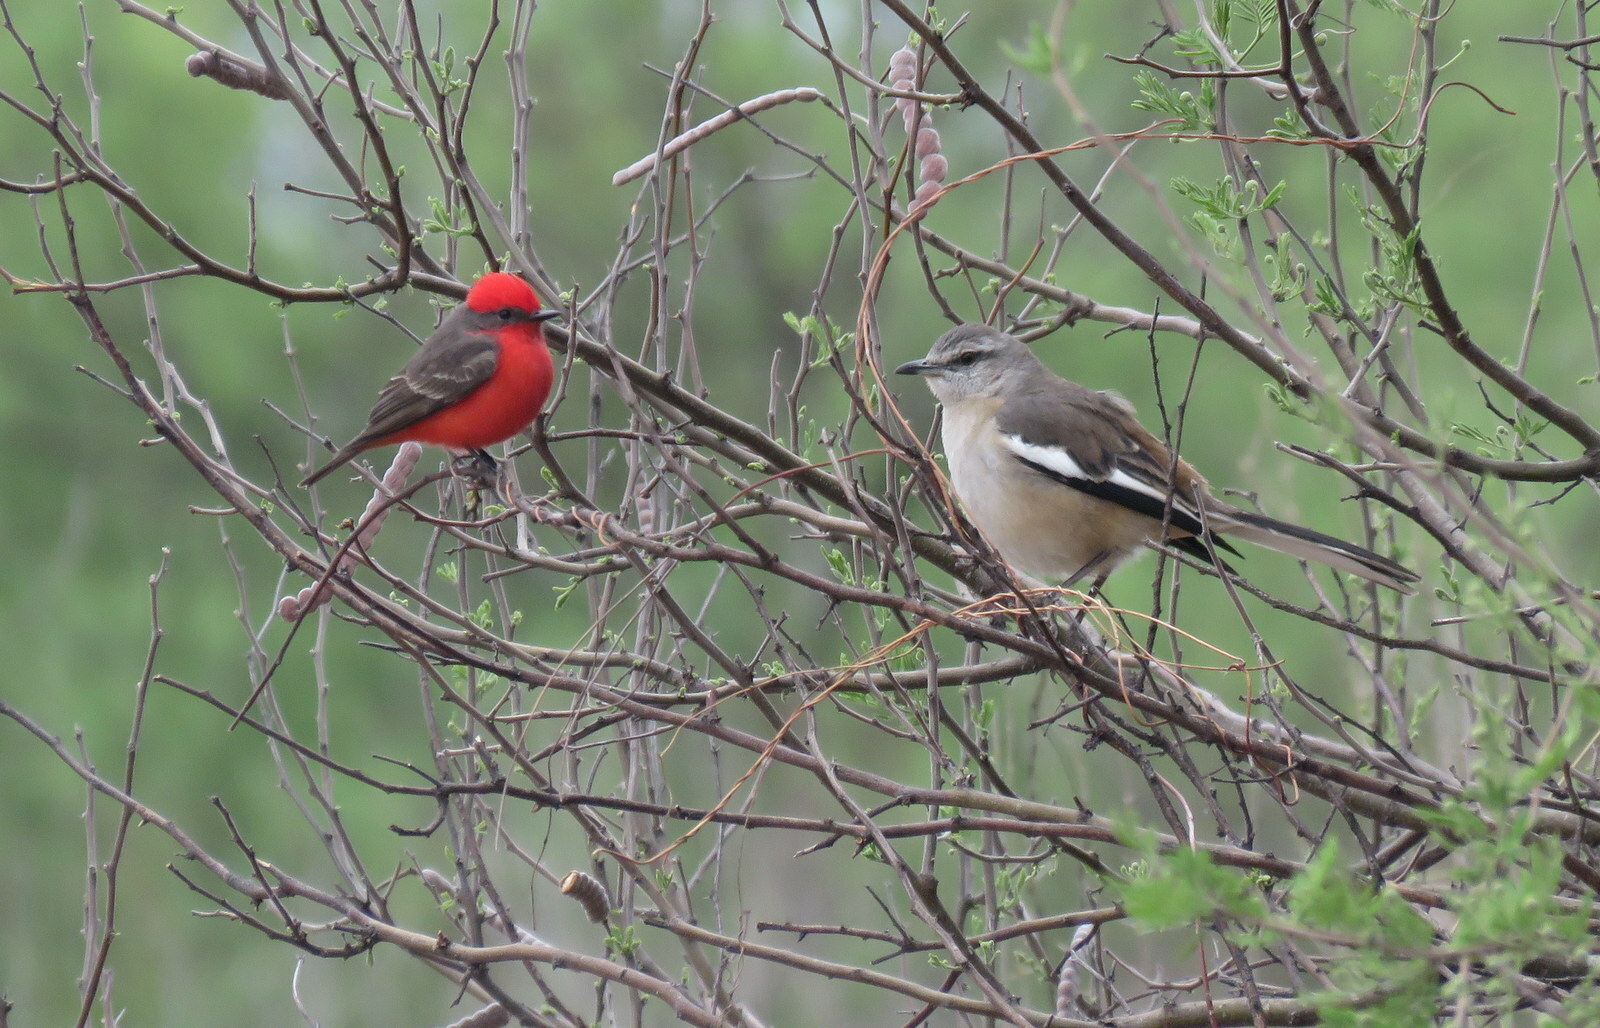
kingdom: Animalia
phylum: Chordata
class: Aves
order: Passeriformes
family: Tyrannidae
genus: Pyrocephalus
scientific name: Pyrocephalus rubinus
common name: Vermilion flycatcher
